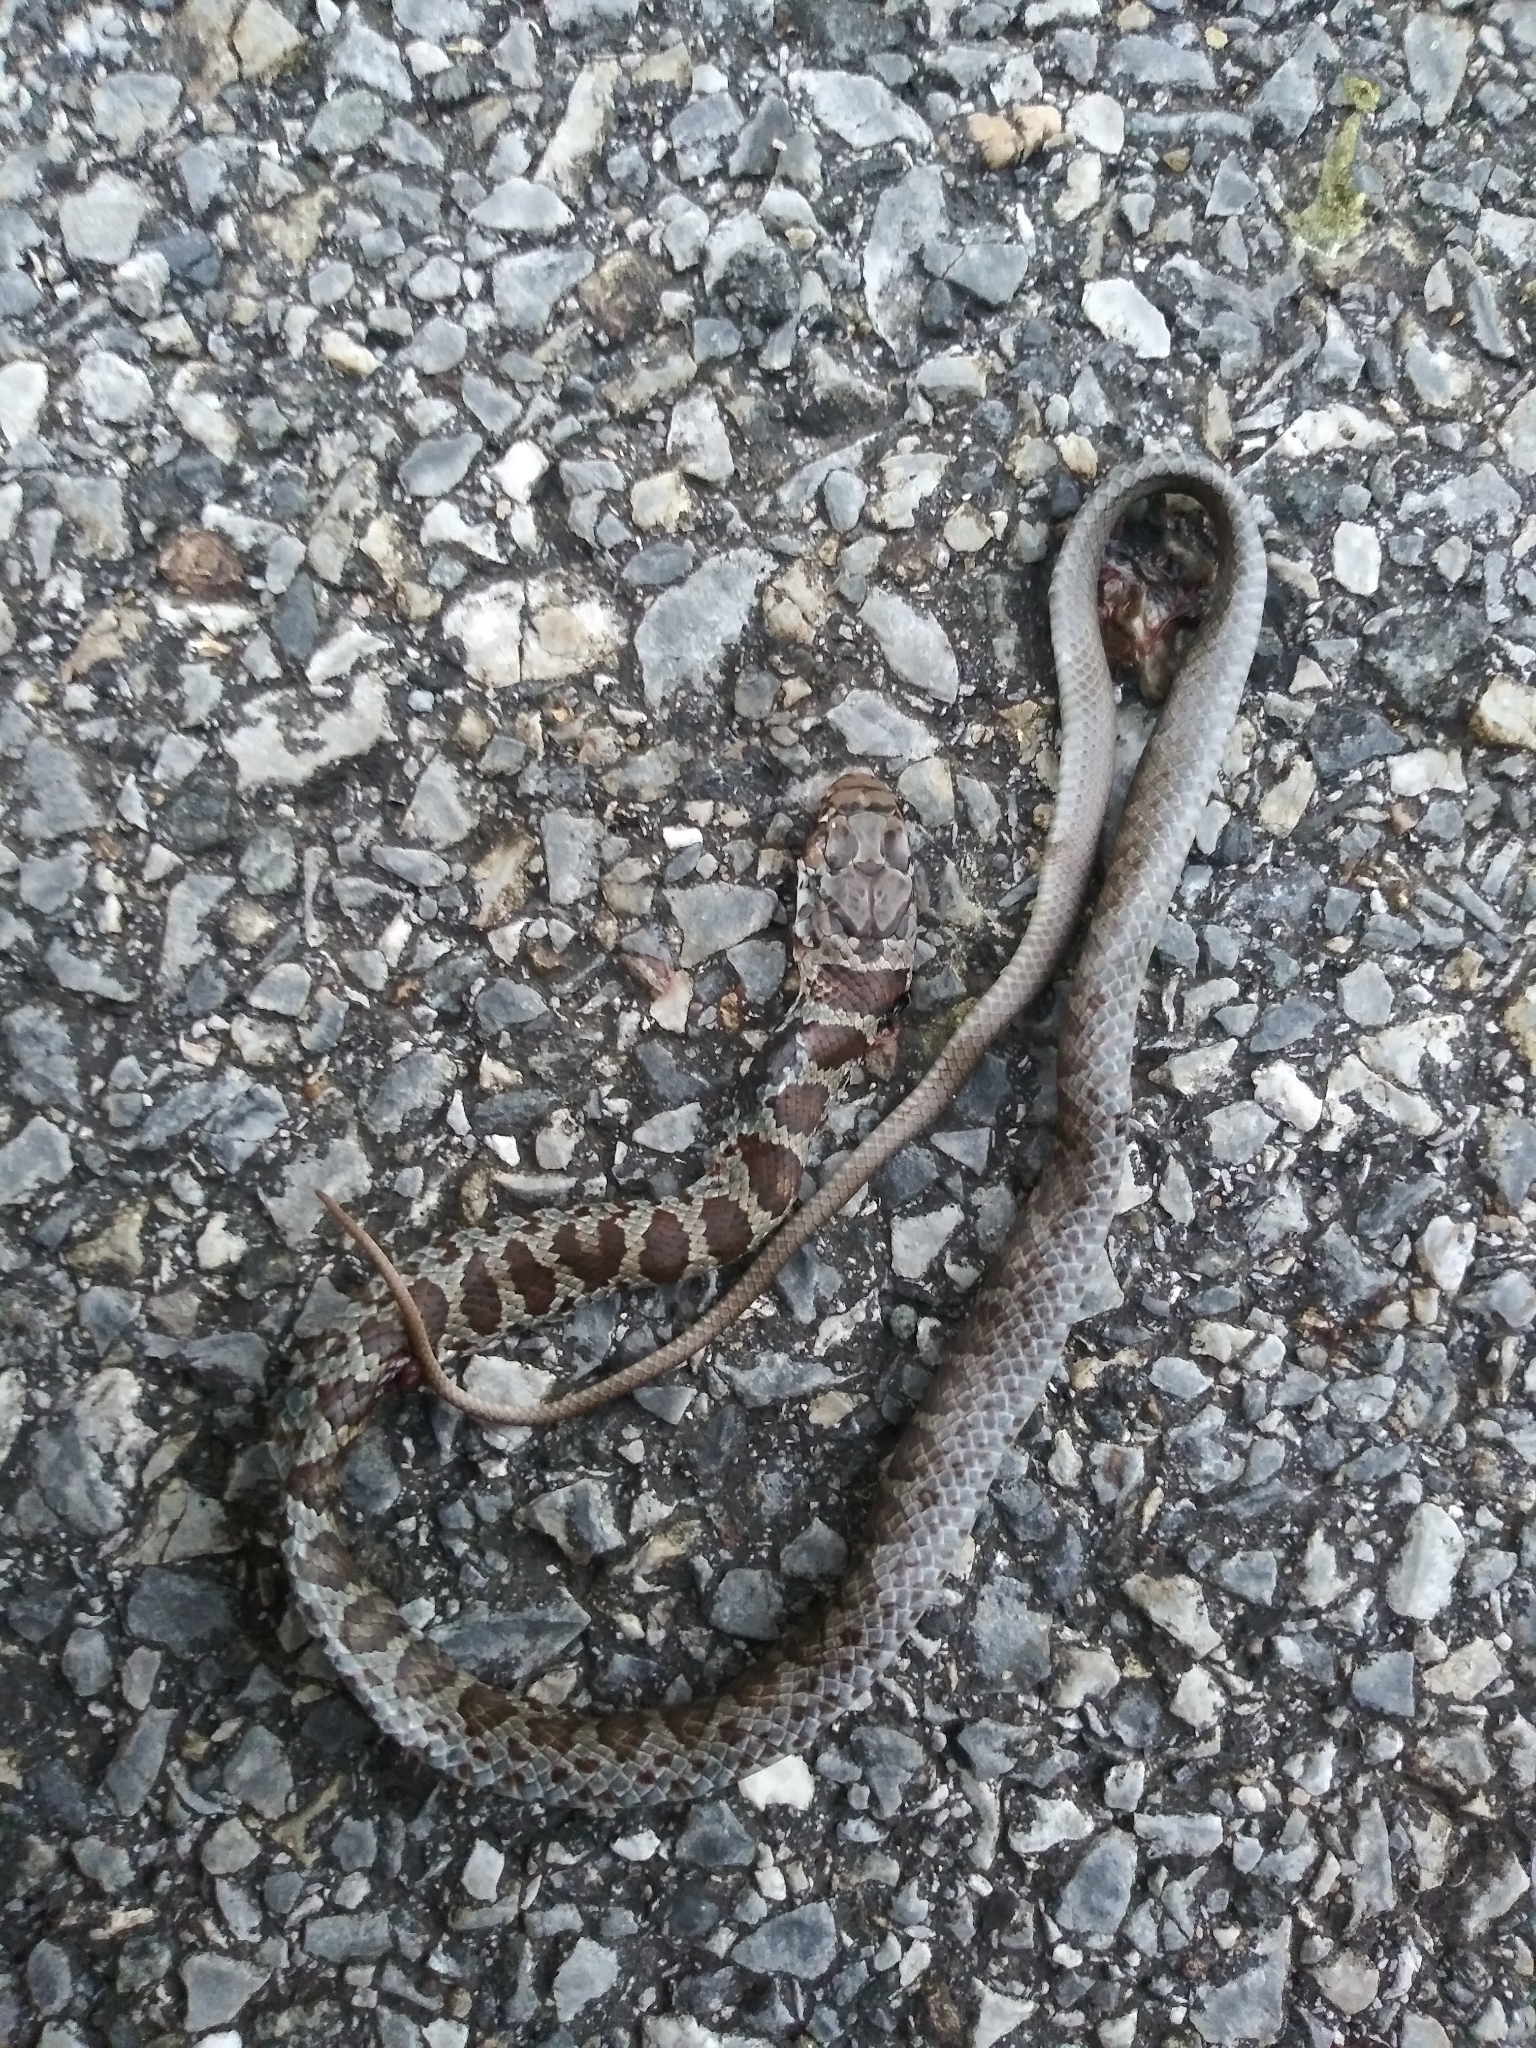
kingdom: Animalia
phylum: Chordata
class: Squamata
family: Colubridae
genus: Coluber
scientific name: Coluber constrictor
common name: Eastern racer
